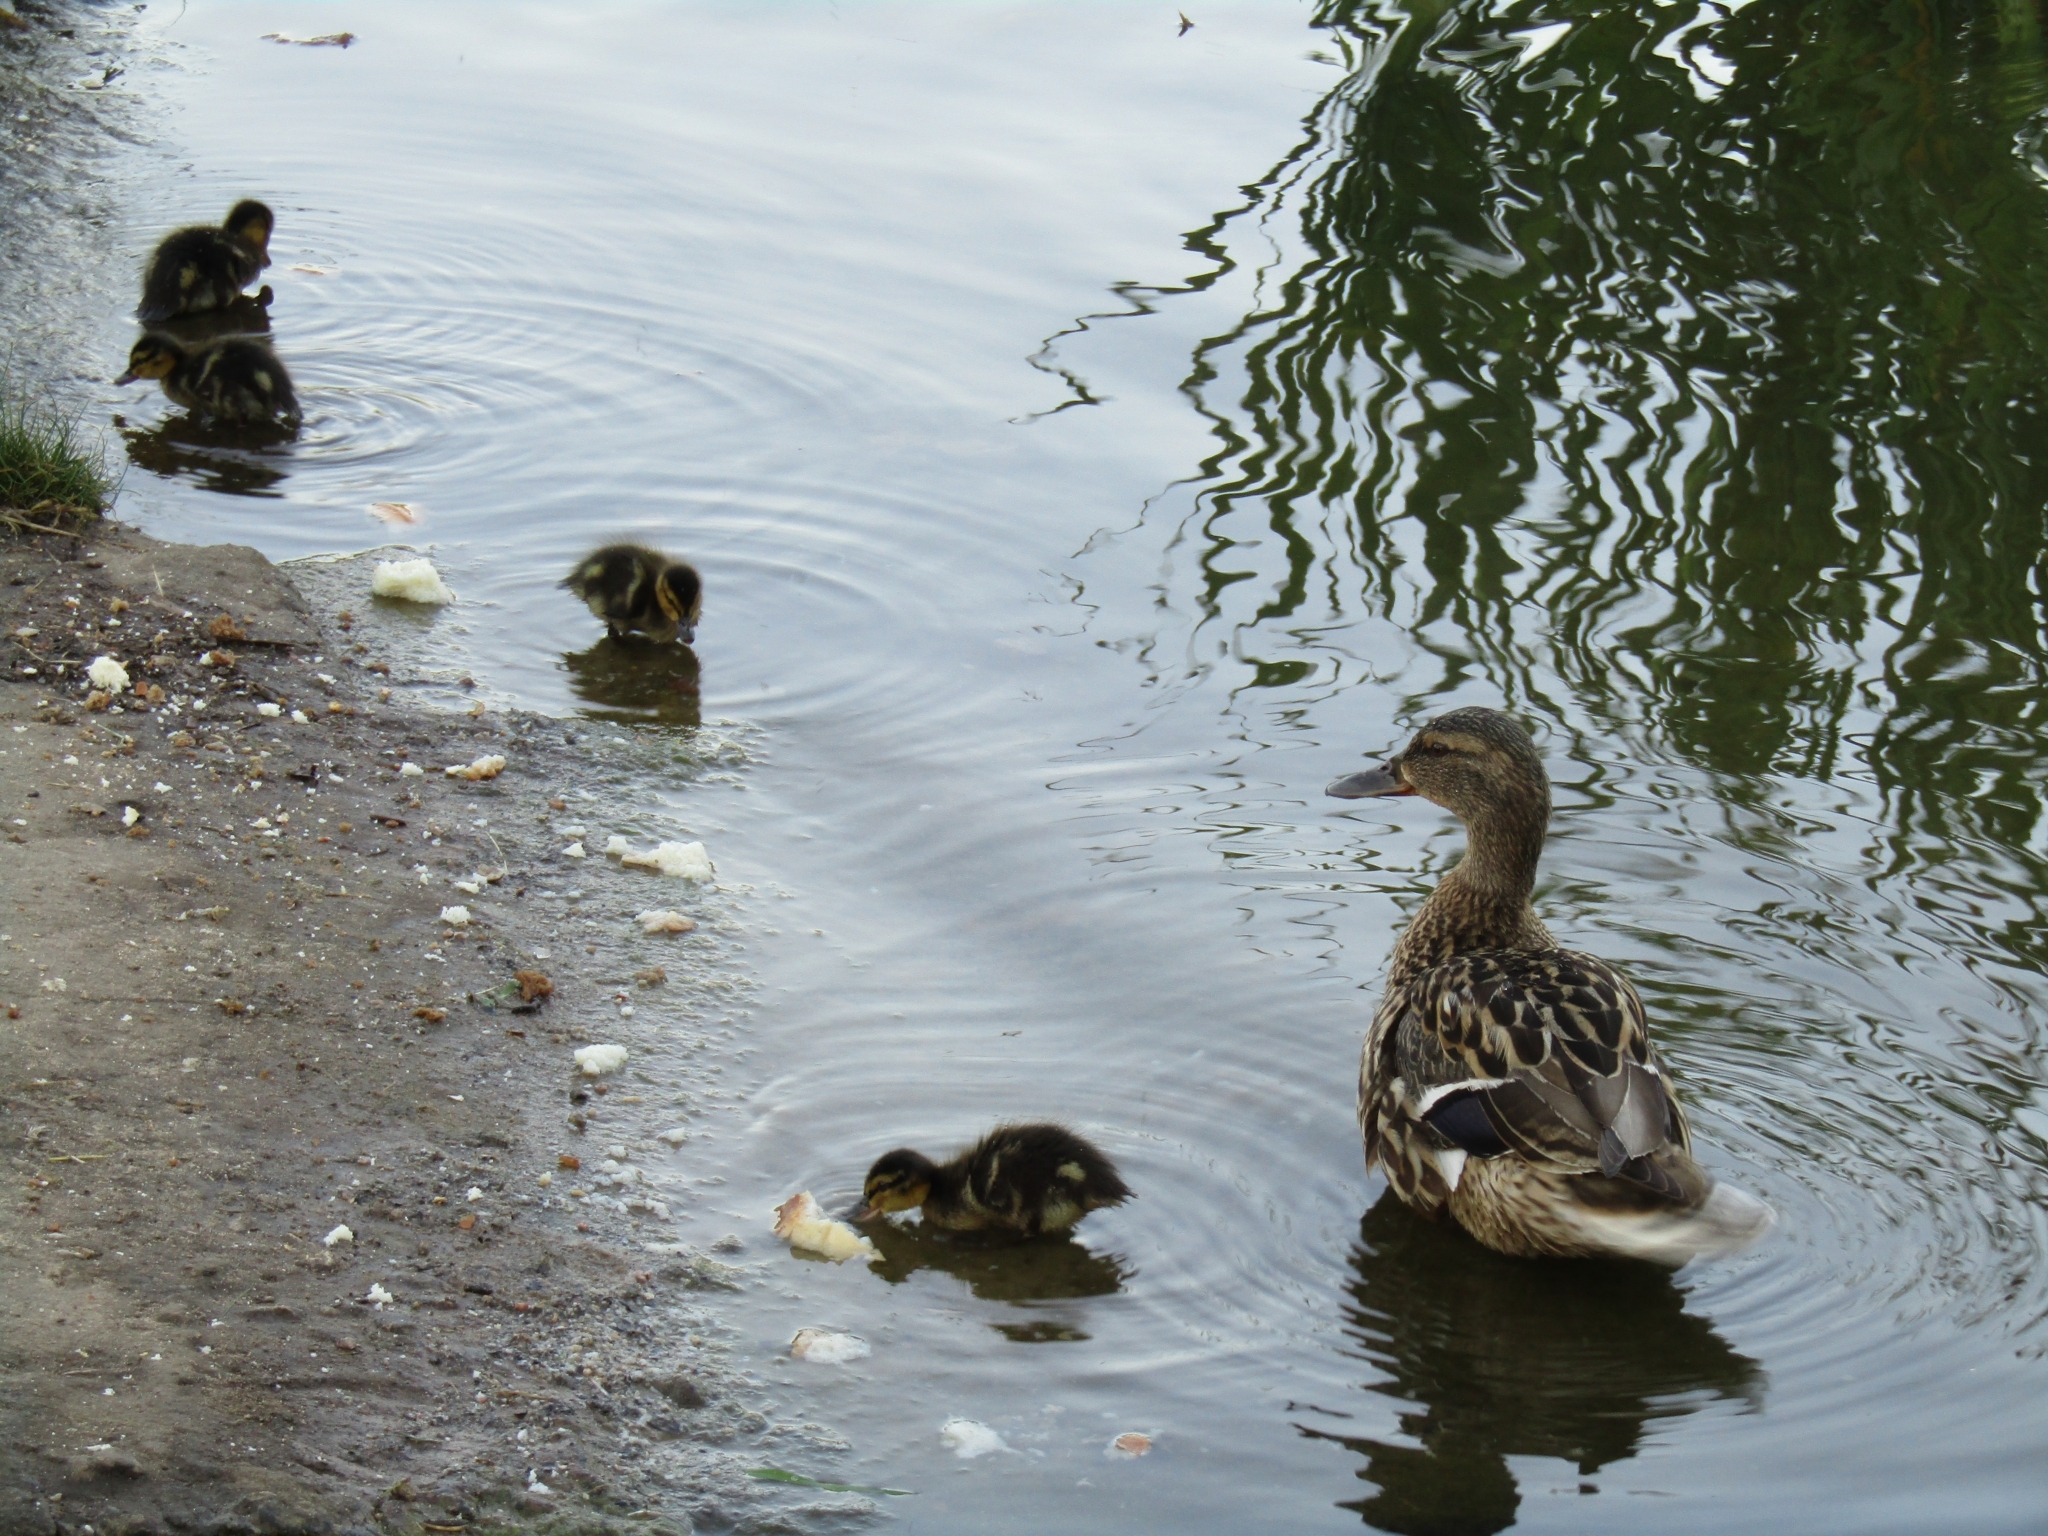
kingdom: Animalia
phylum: Chordata
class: Aves
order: Anseriformes
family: Anatidae
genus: Anas
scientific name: Anas platyrhynchos
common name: Mallard
